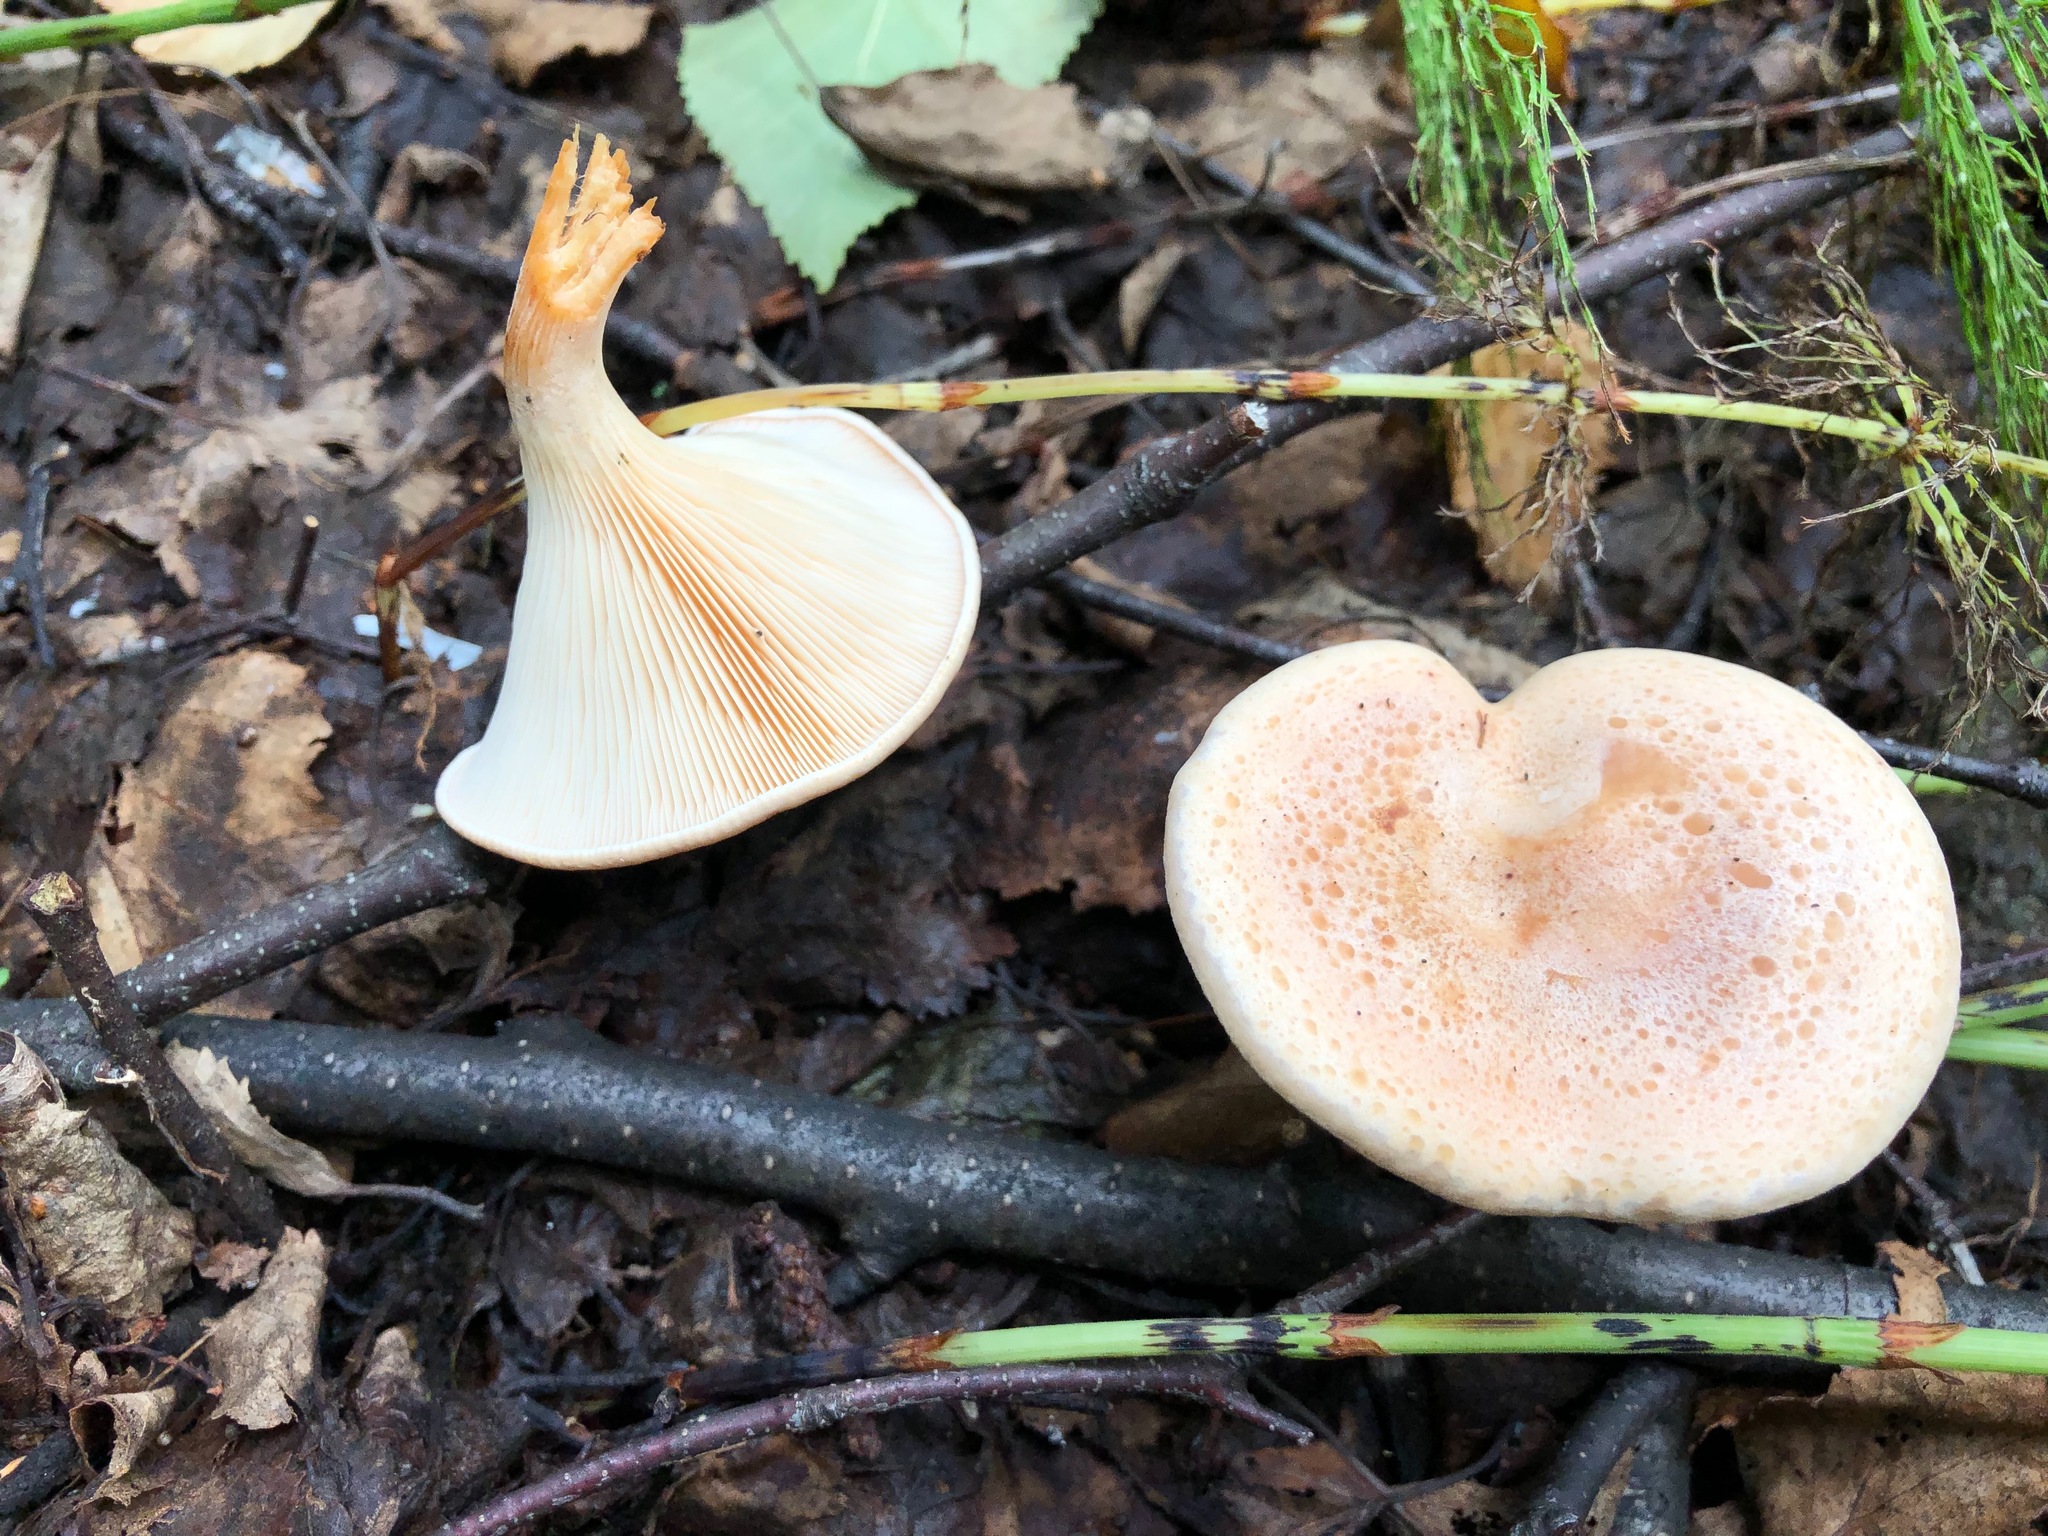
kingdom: Fungi
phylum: Basidiomycota
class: Agaricomycetes
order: Agaricales
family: Tricholomataceae
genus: Infundibulicybe
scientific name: Infundibulicybe gibba
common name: Common funnel
